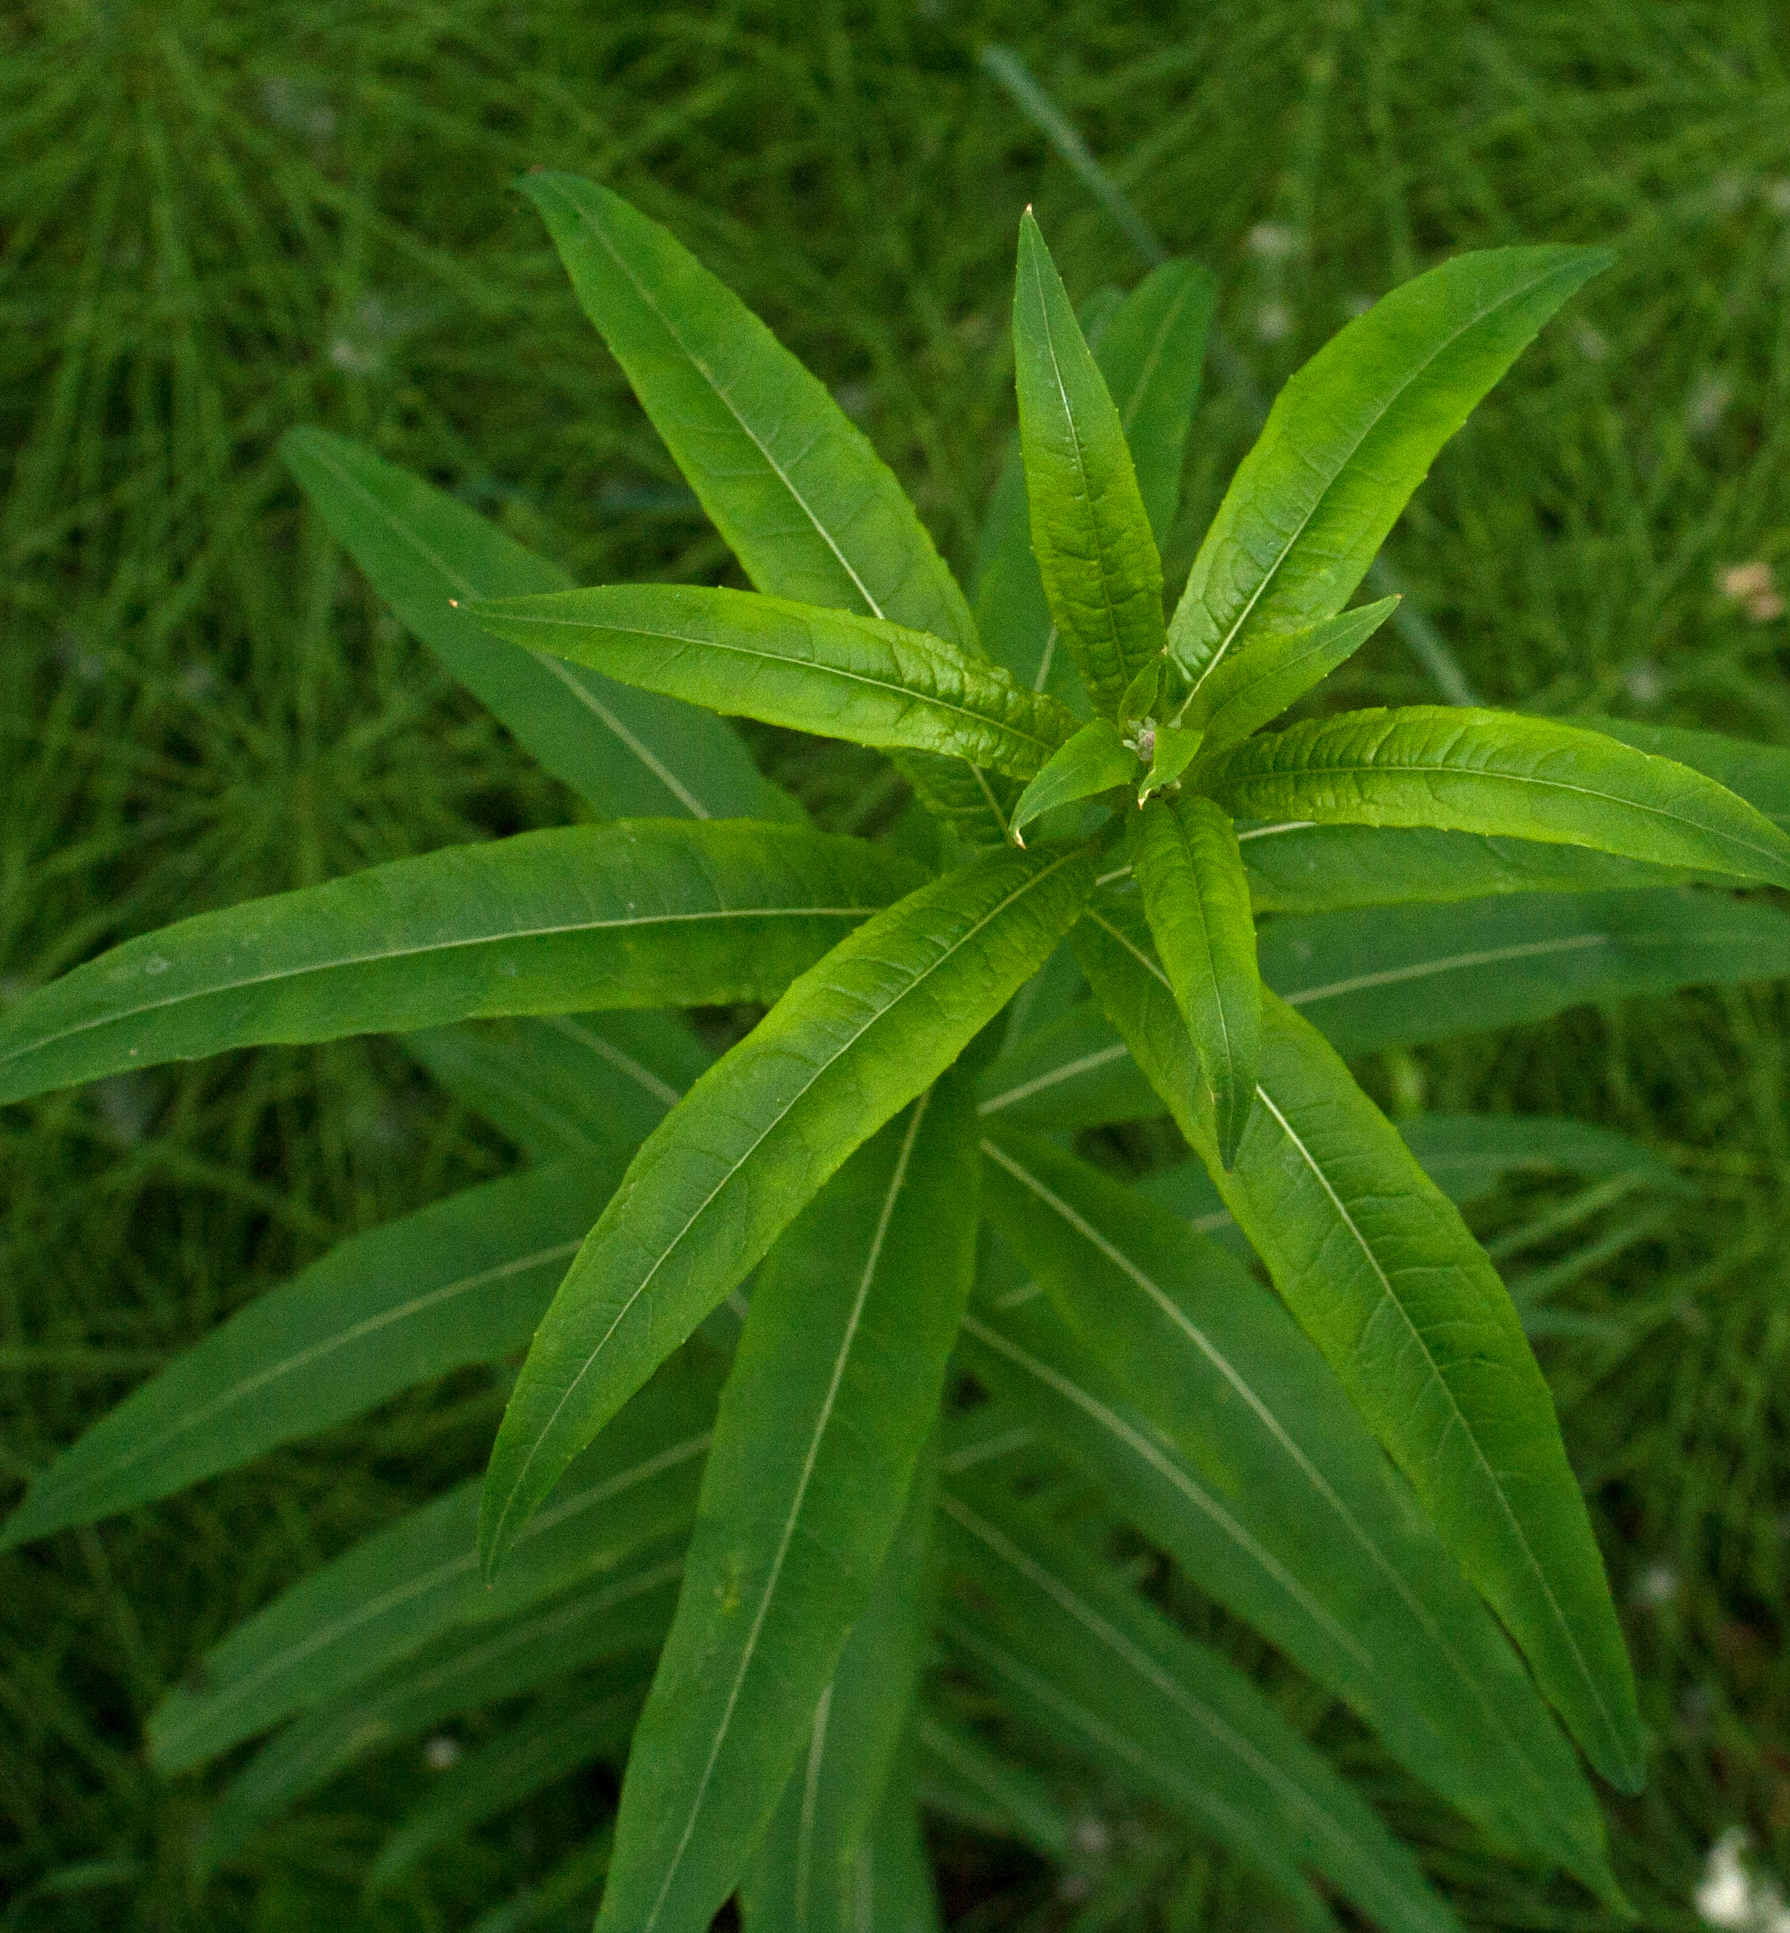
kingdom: Plantae
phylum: Tracheophyta
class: Magnoliopsida
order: Myrtales
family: Onagraceae
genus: Chamaenerion
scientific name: Chamaenerion angustifolium
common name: Fireweed
